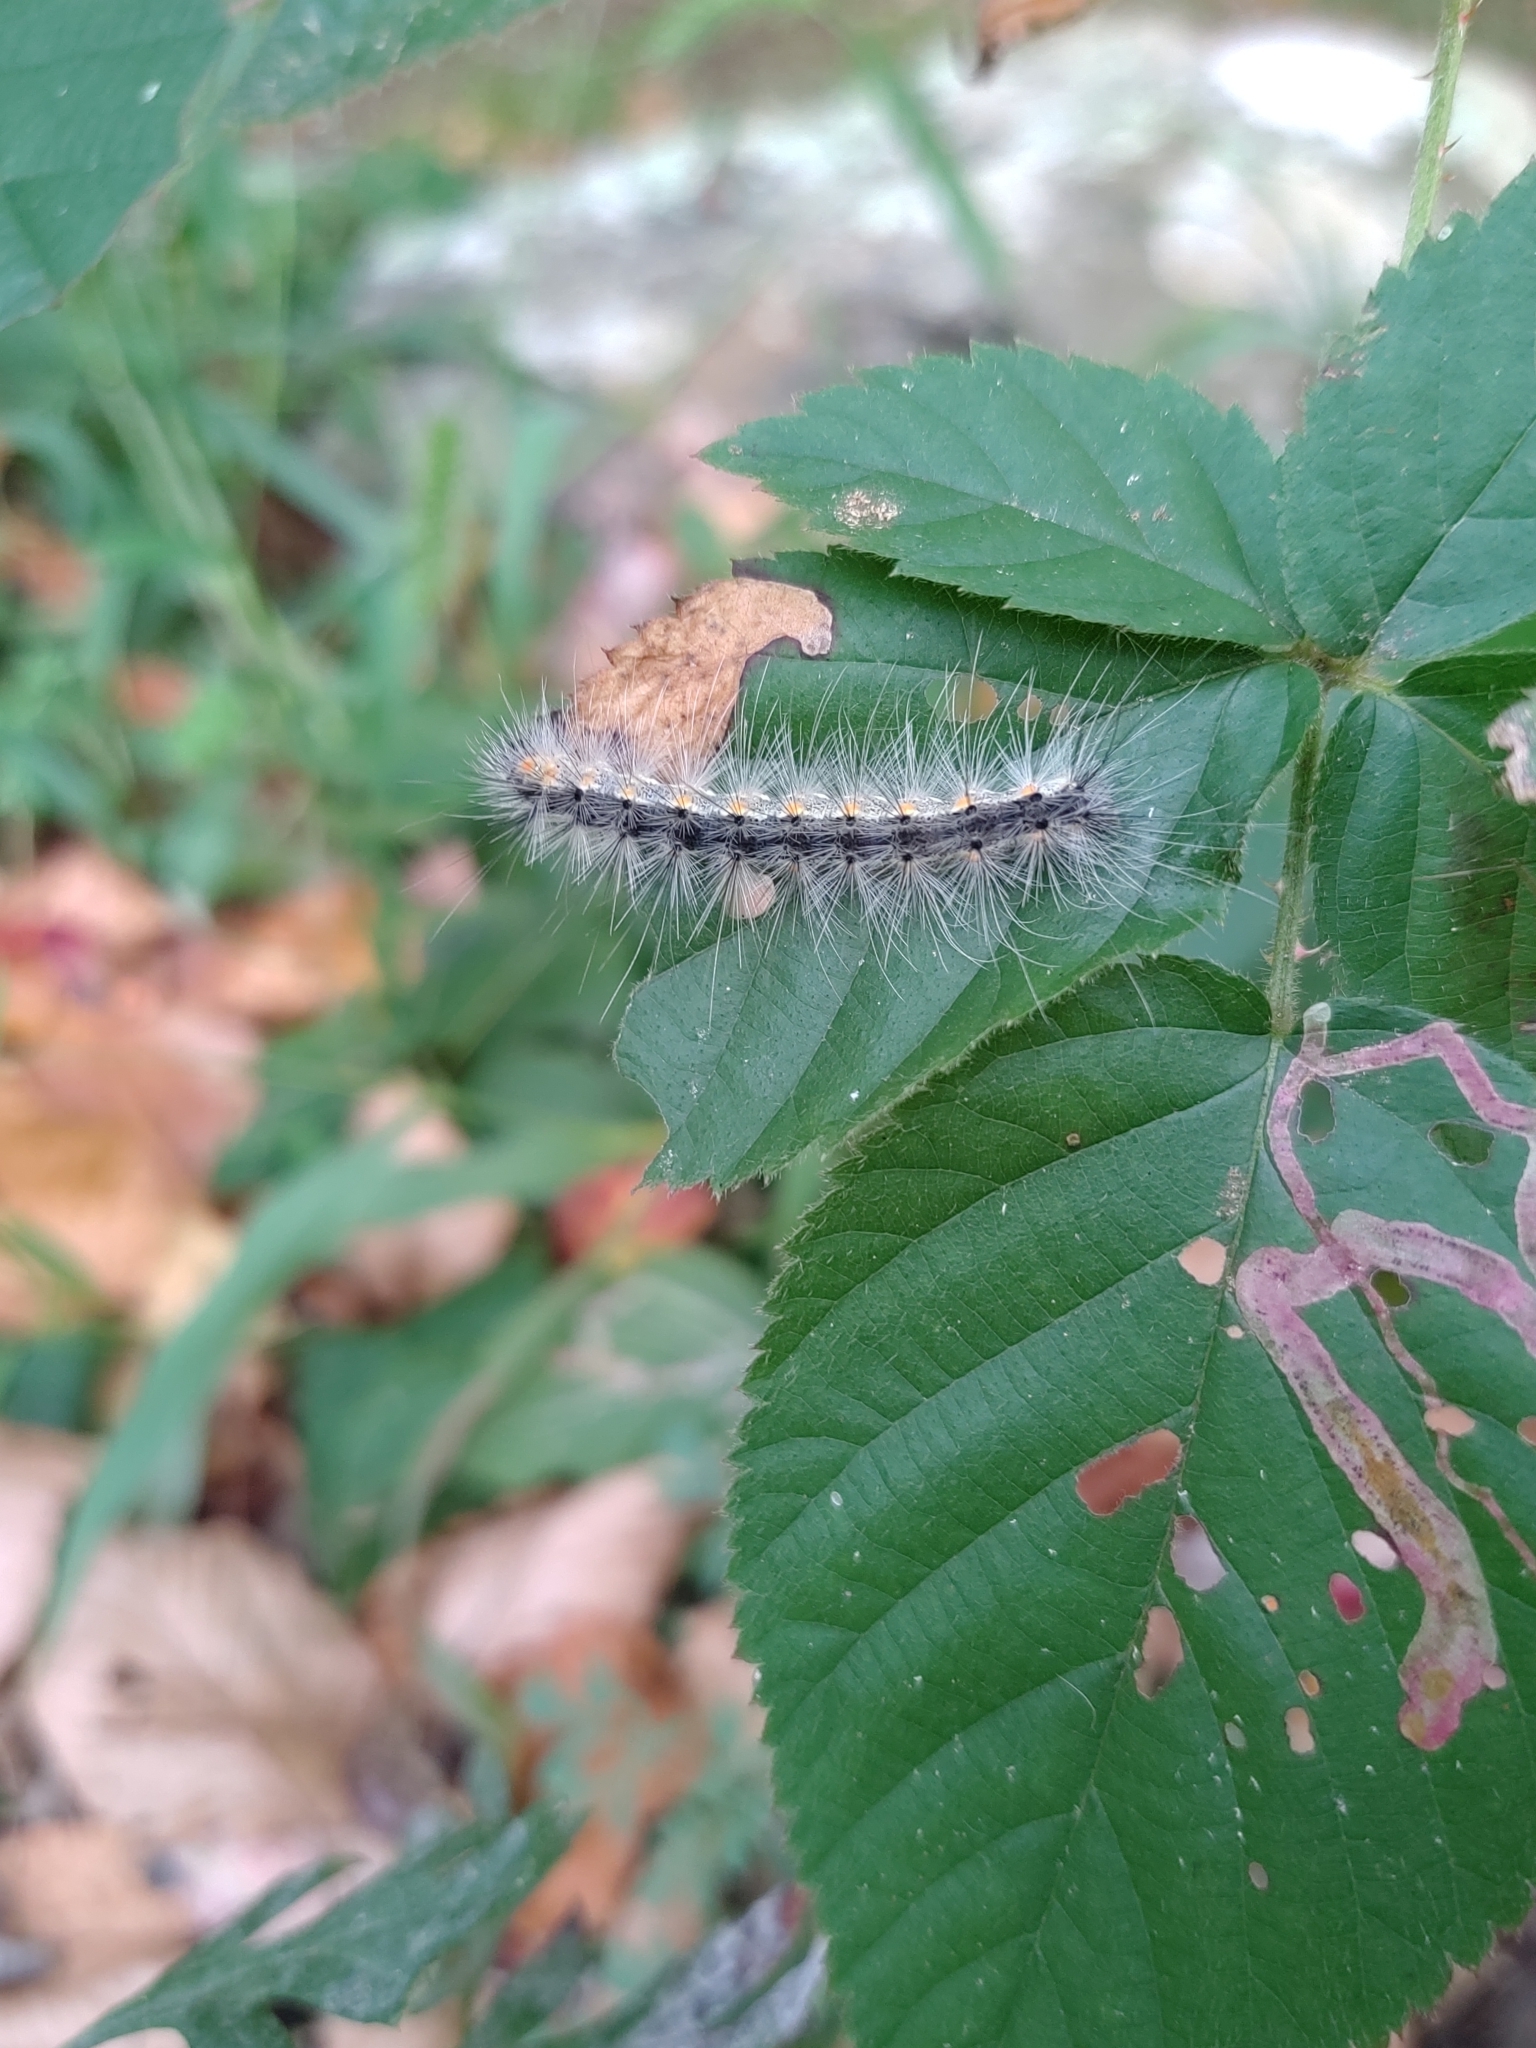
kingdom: Animalia
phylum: Arthropoda
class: Insecta
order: Lepidoptera
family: Erebidae
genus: Hyphantria
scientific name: Hyphantria cunea
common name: American white moth
